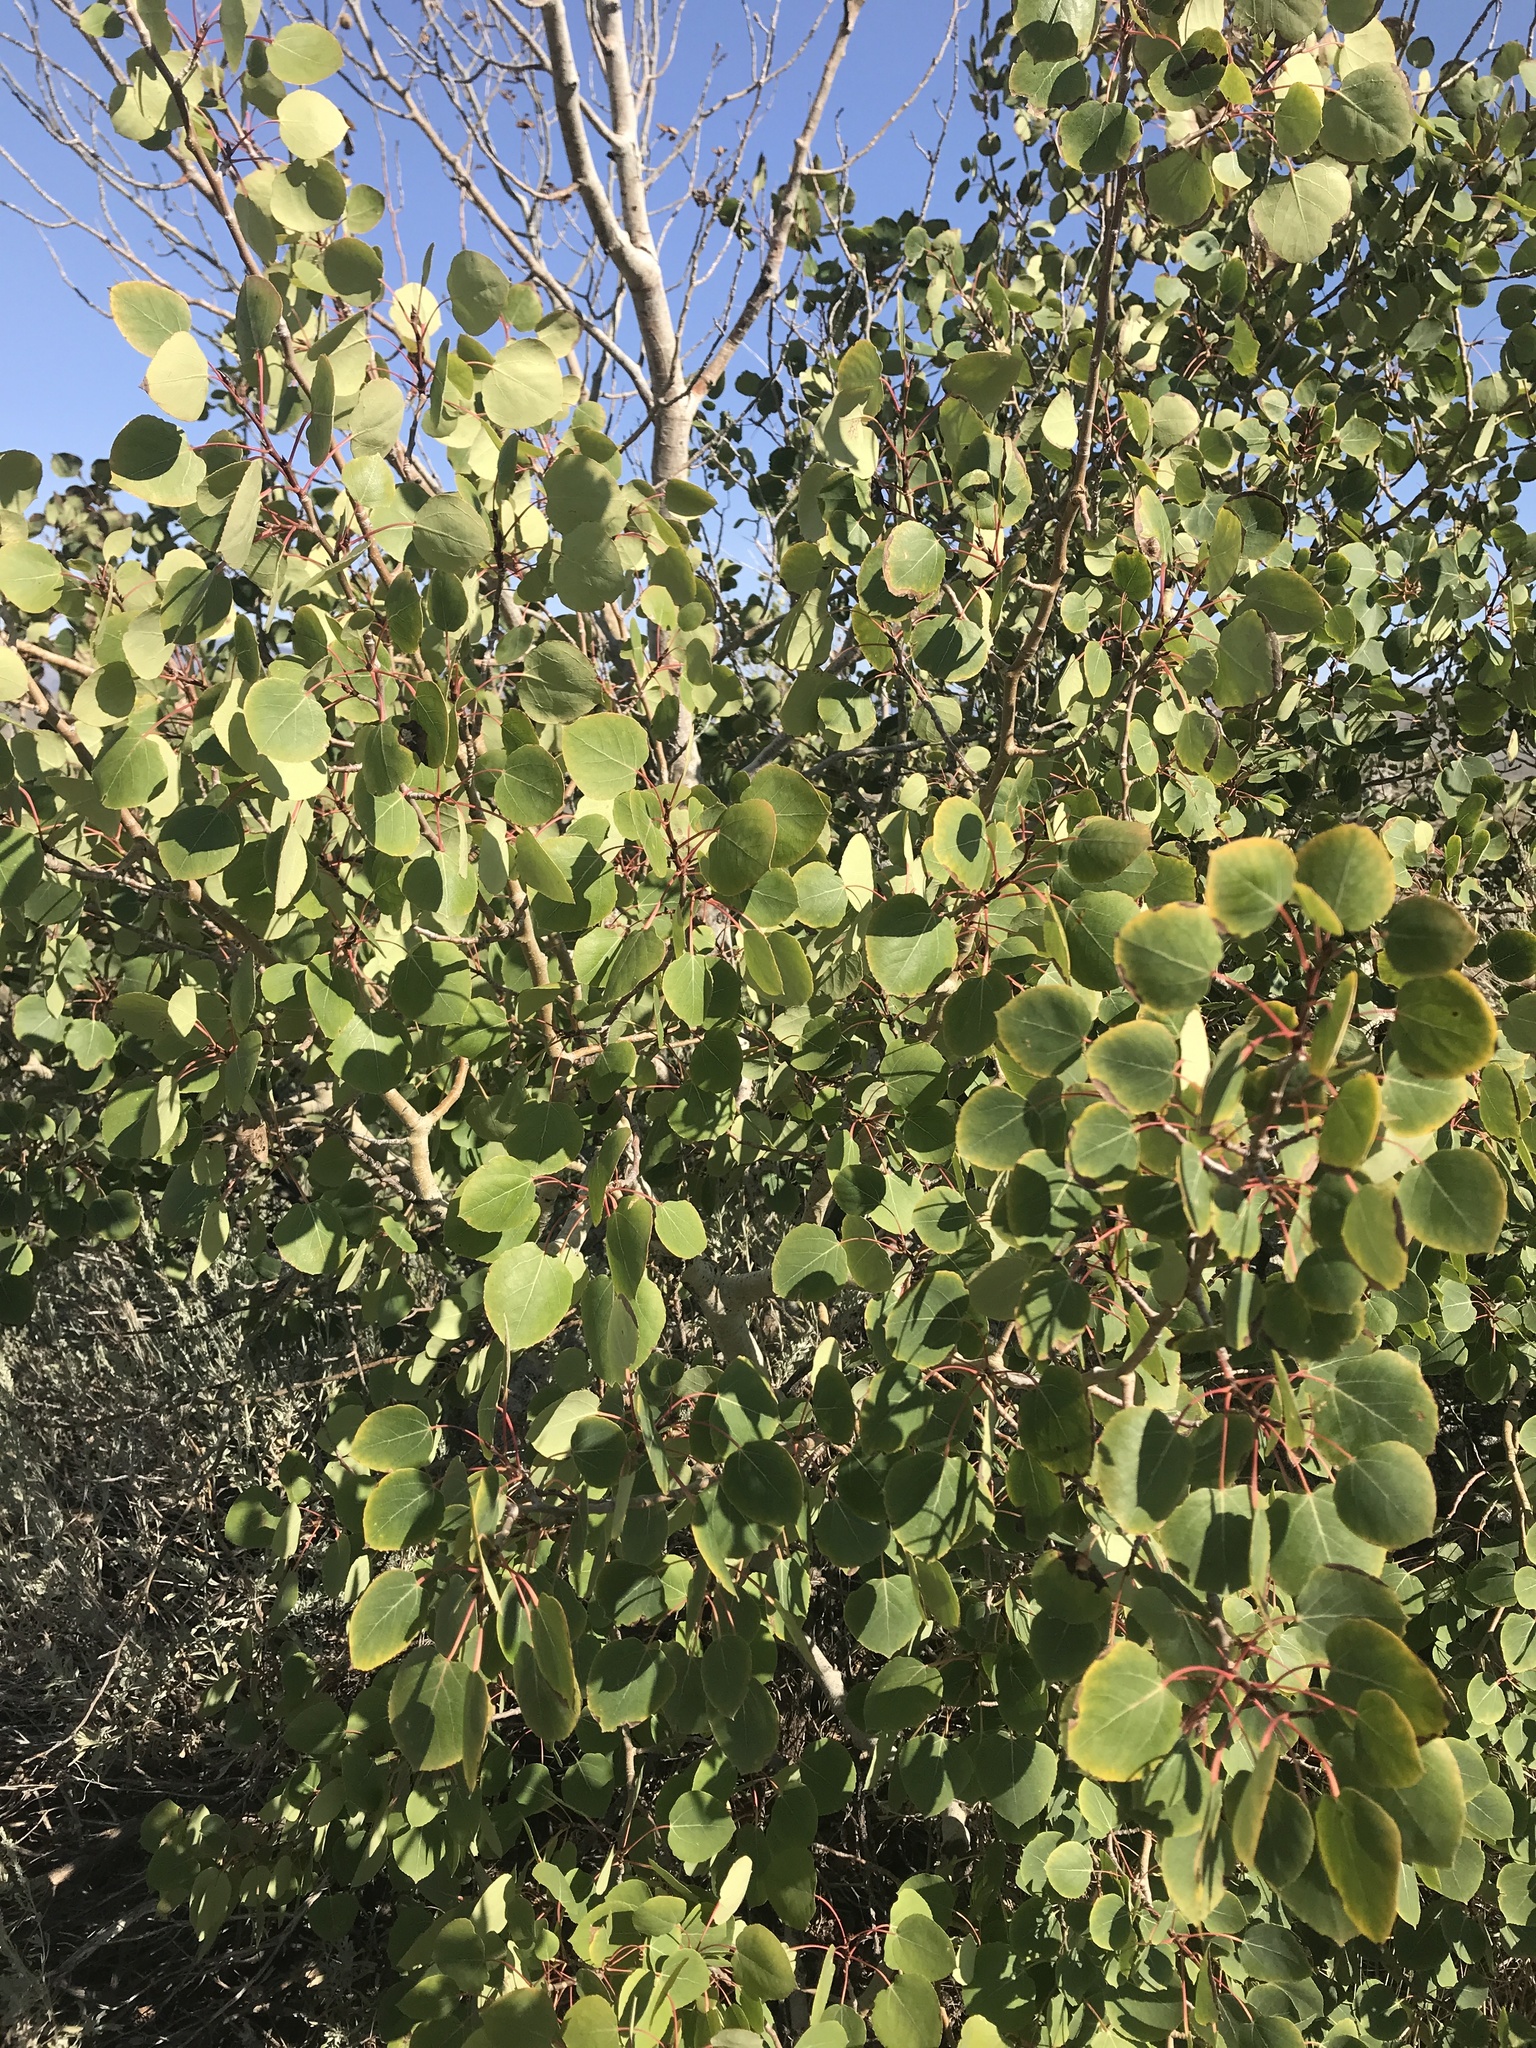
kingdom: Plantae
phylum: Tracheophyta
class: Magnoliopsida
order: Malpighiales
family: Salicaceae
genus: Populus
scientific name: Populus tremuloides
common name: Quaking aspen
